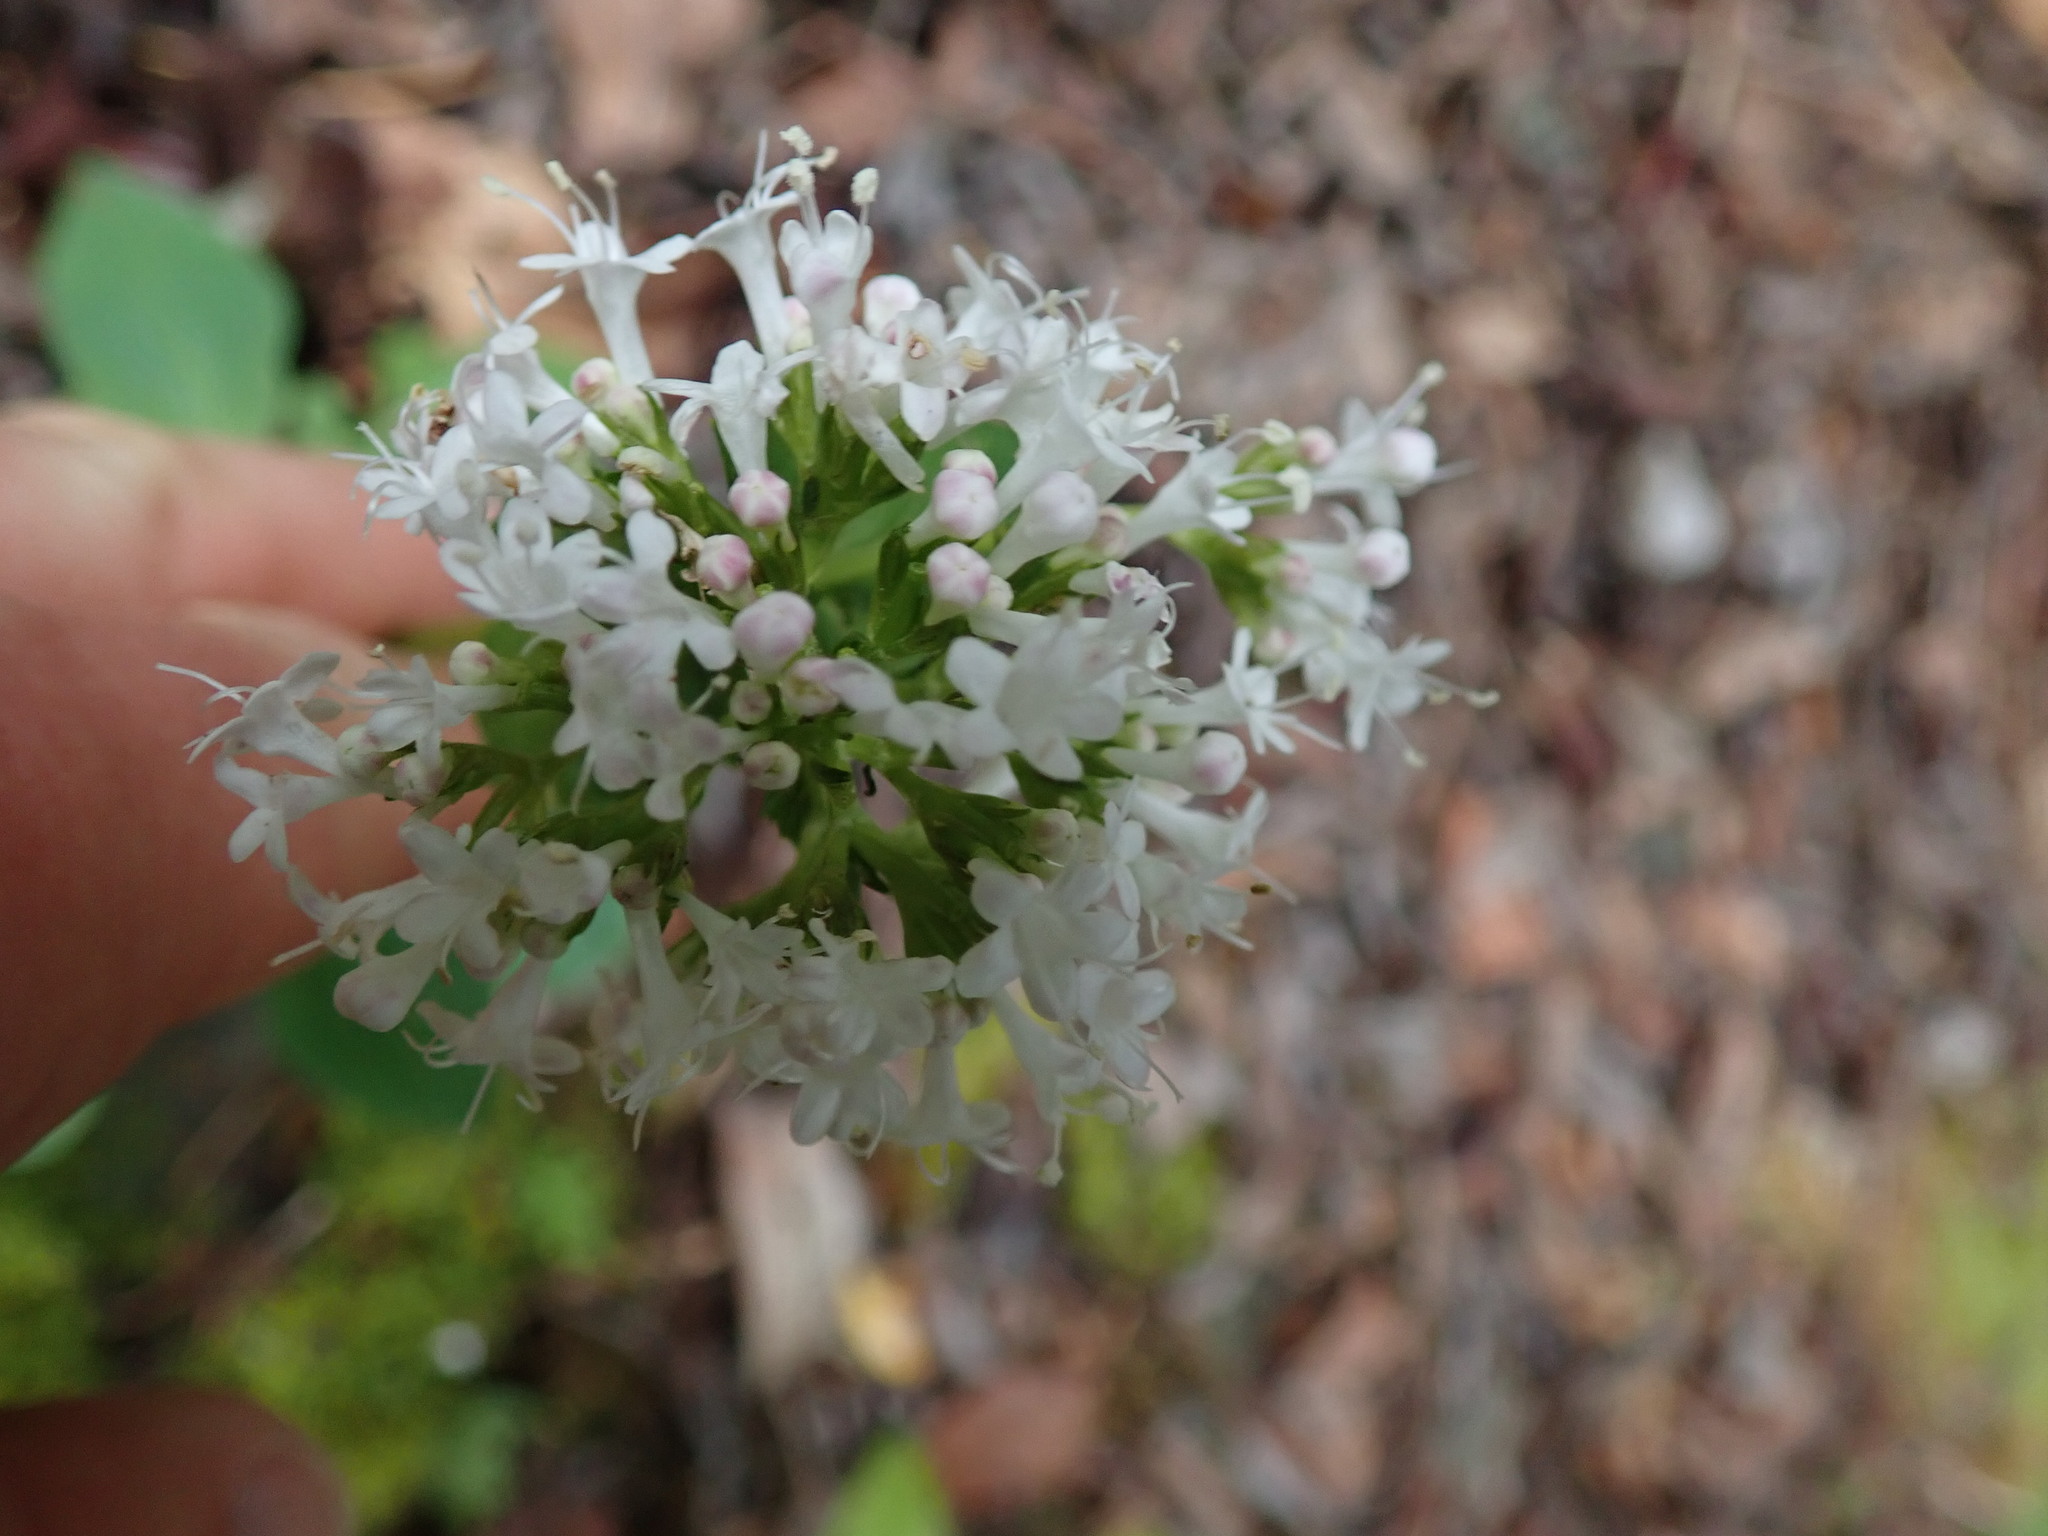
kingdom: Plantae
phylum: Tracheophyta
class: Magnoliopsida
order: Dipsacales
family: Caprifoliaceae
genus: Valeriana
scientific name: Valeriana scouleri
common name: Scouler's valerian
